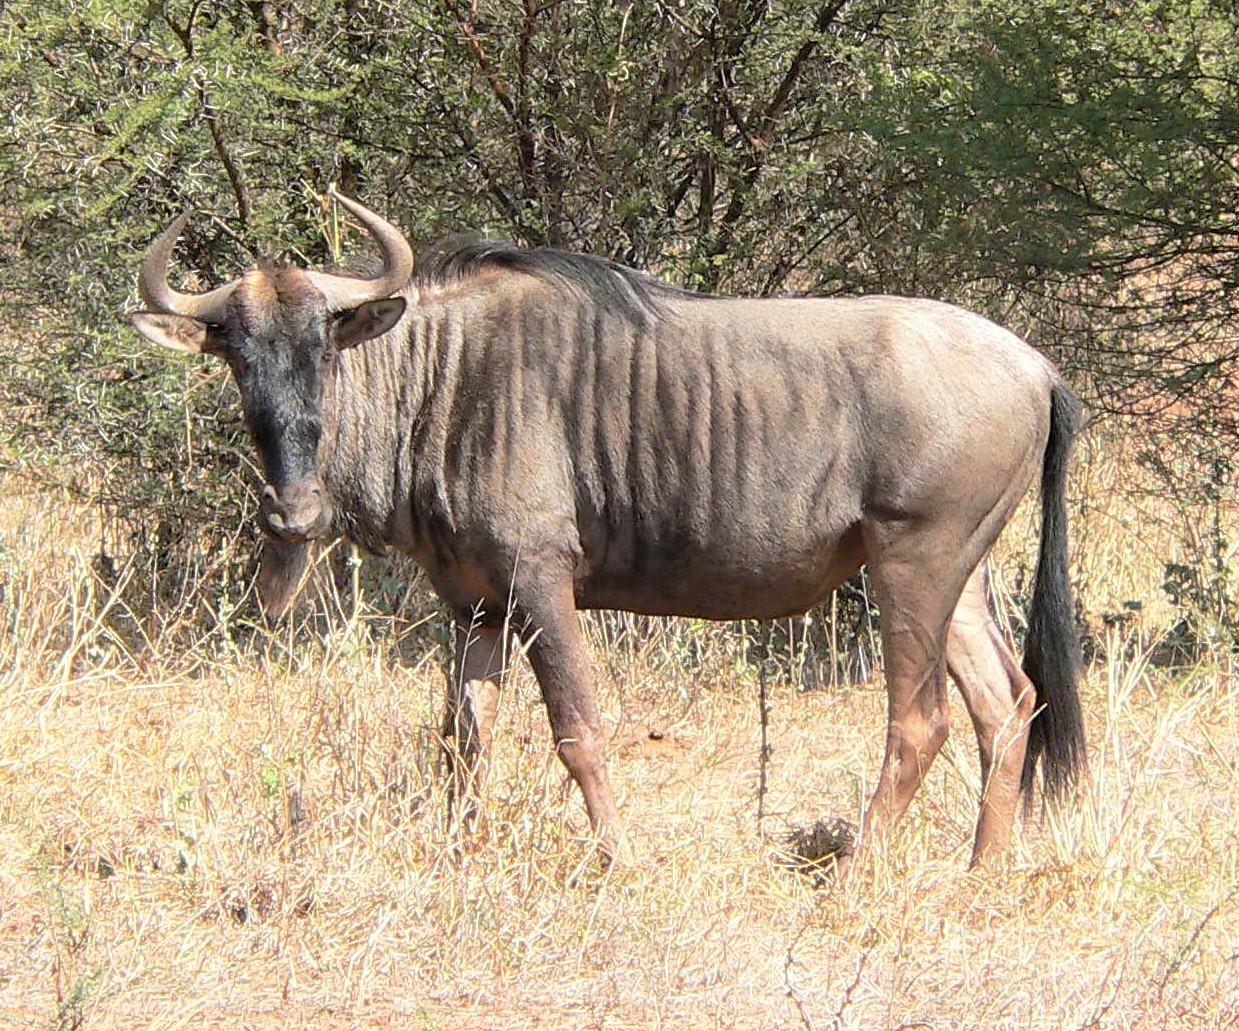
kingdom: Animalia
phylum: Chordata
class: Mammalia
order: Artiodactyla
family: Bovidae
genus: Connochaetes
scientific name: Connochaetes taurinus
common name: Blue wildebeest
